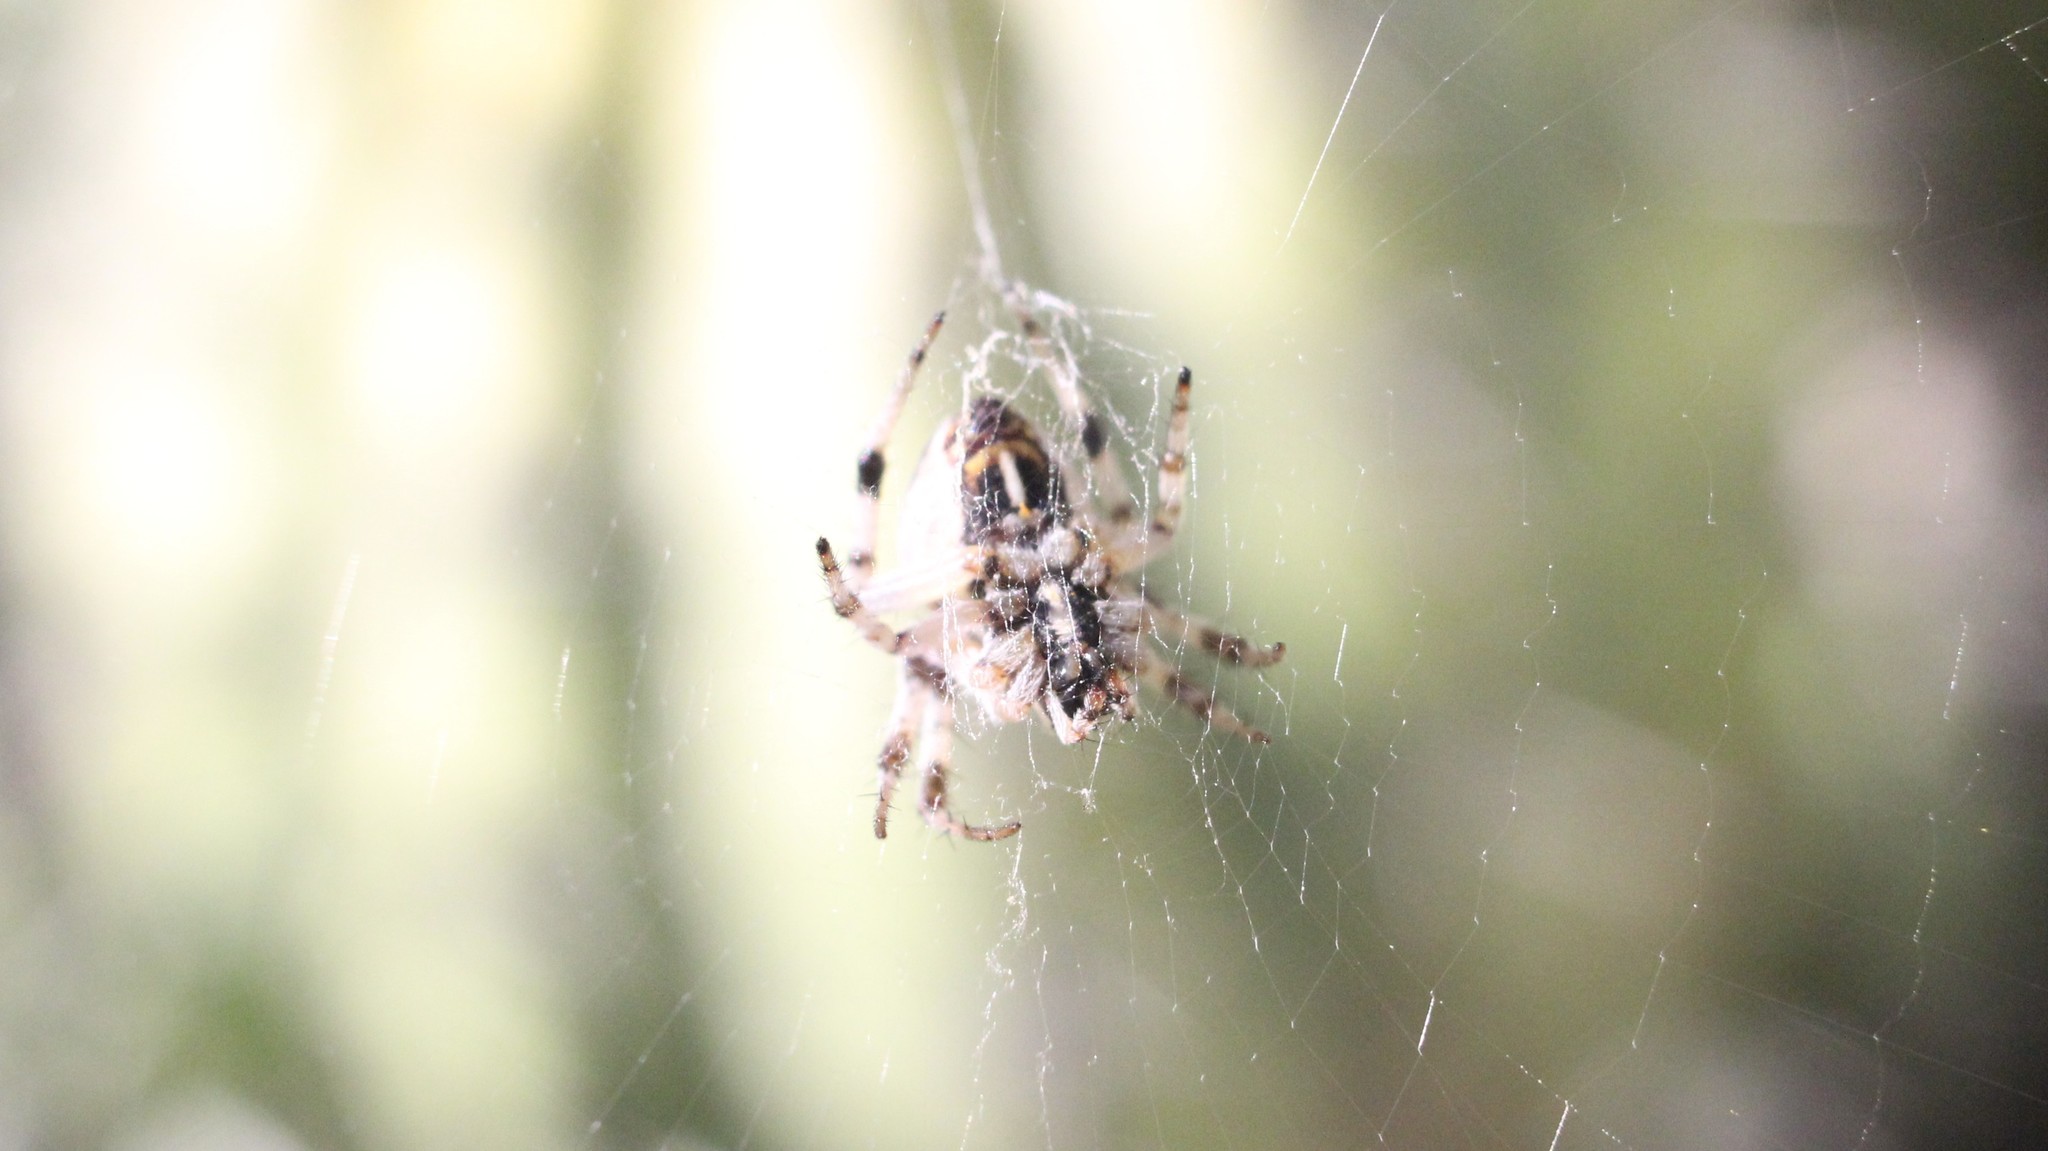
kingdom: Animalia
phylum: Arthropoda
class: Arachnida
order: Araneae
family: Araneidae
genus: Metepeira
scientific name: Metepeira
